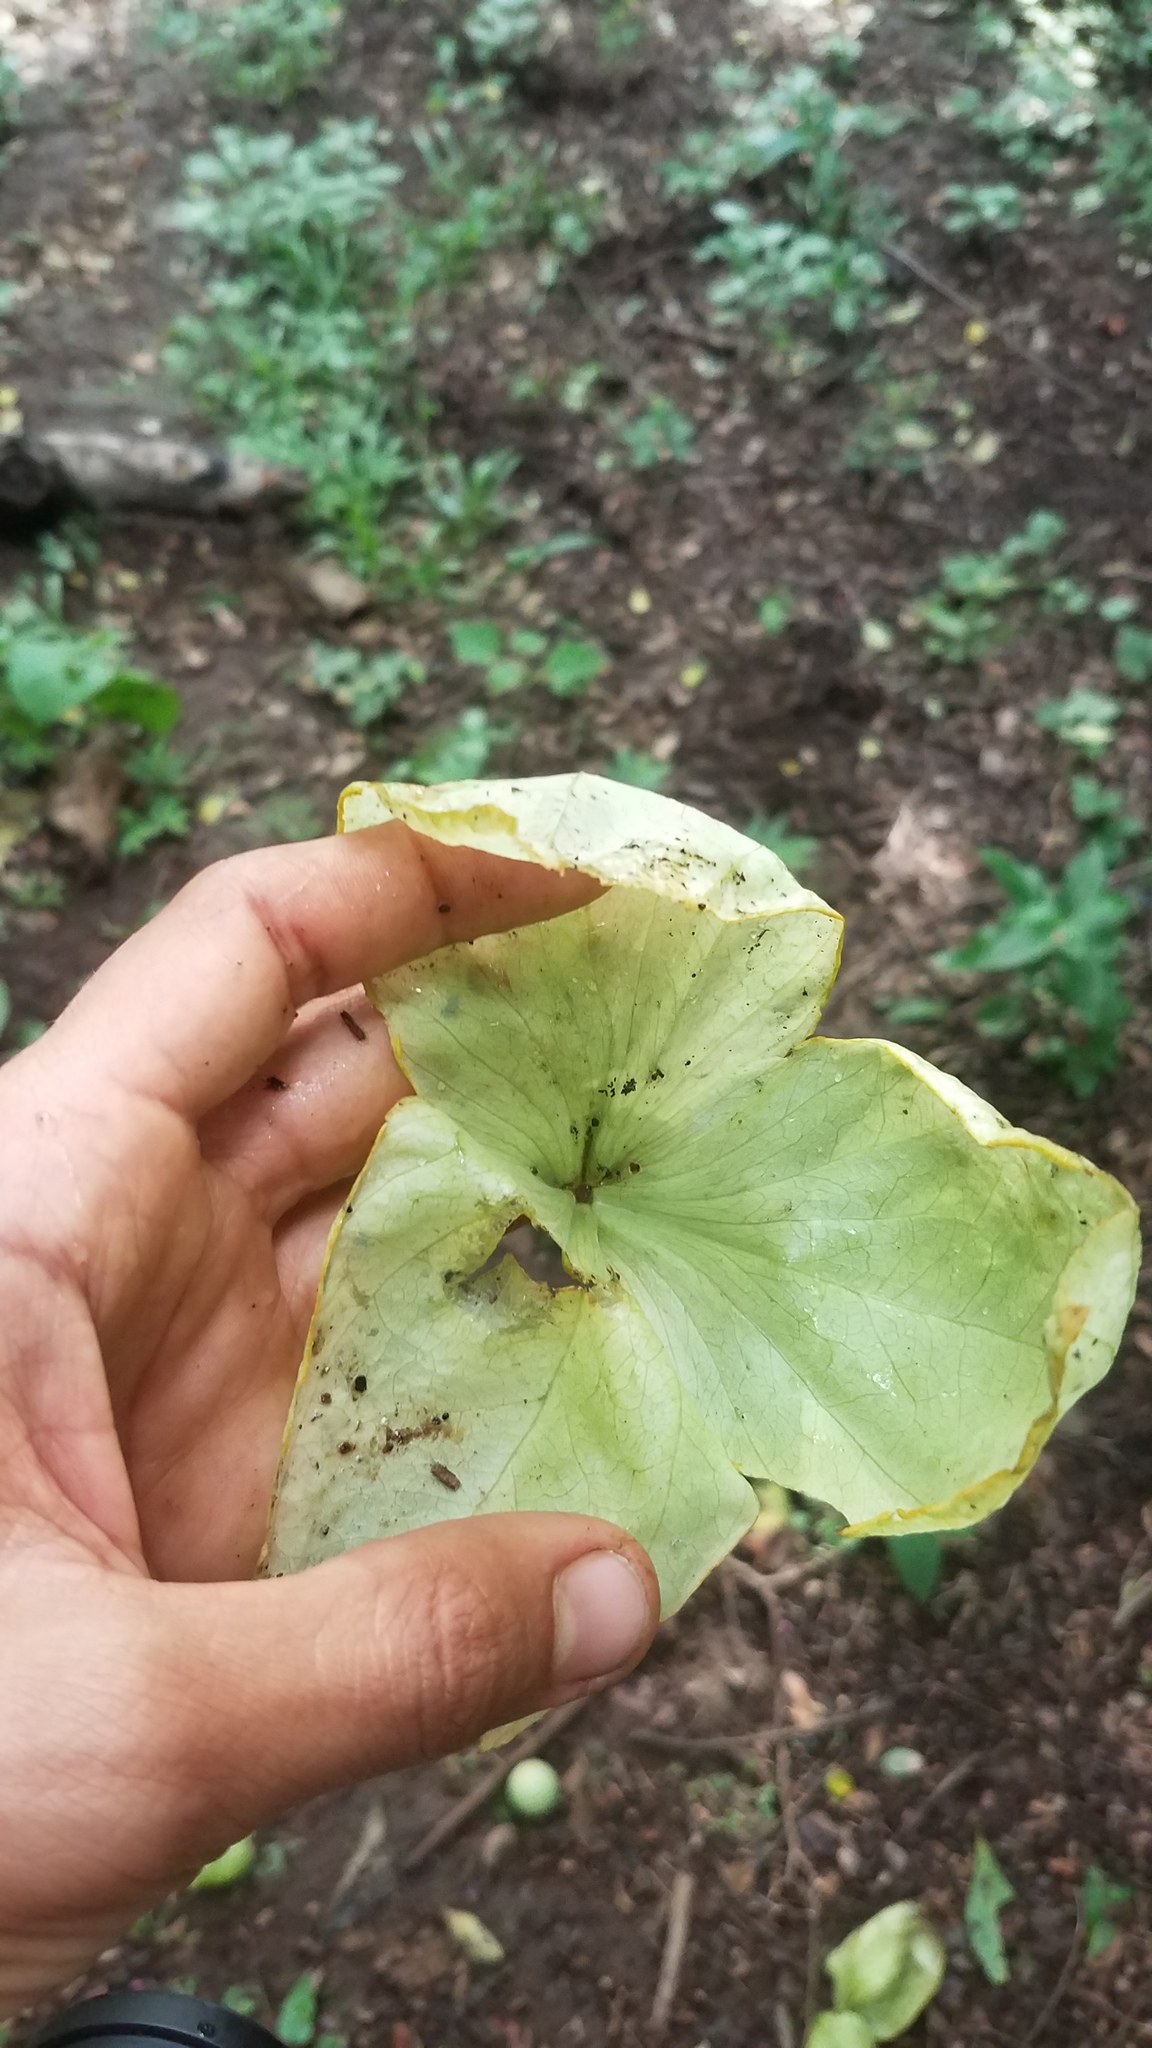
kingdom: Plantae
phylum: Tracheophyta
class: Magnoliopsida
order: Malpighiales
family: Passifloraceae
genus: Passiflora
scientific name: Passiflora platyloba
